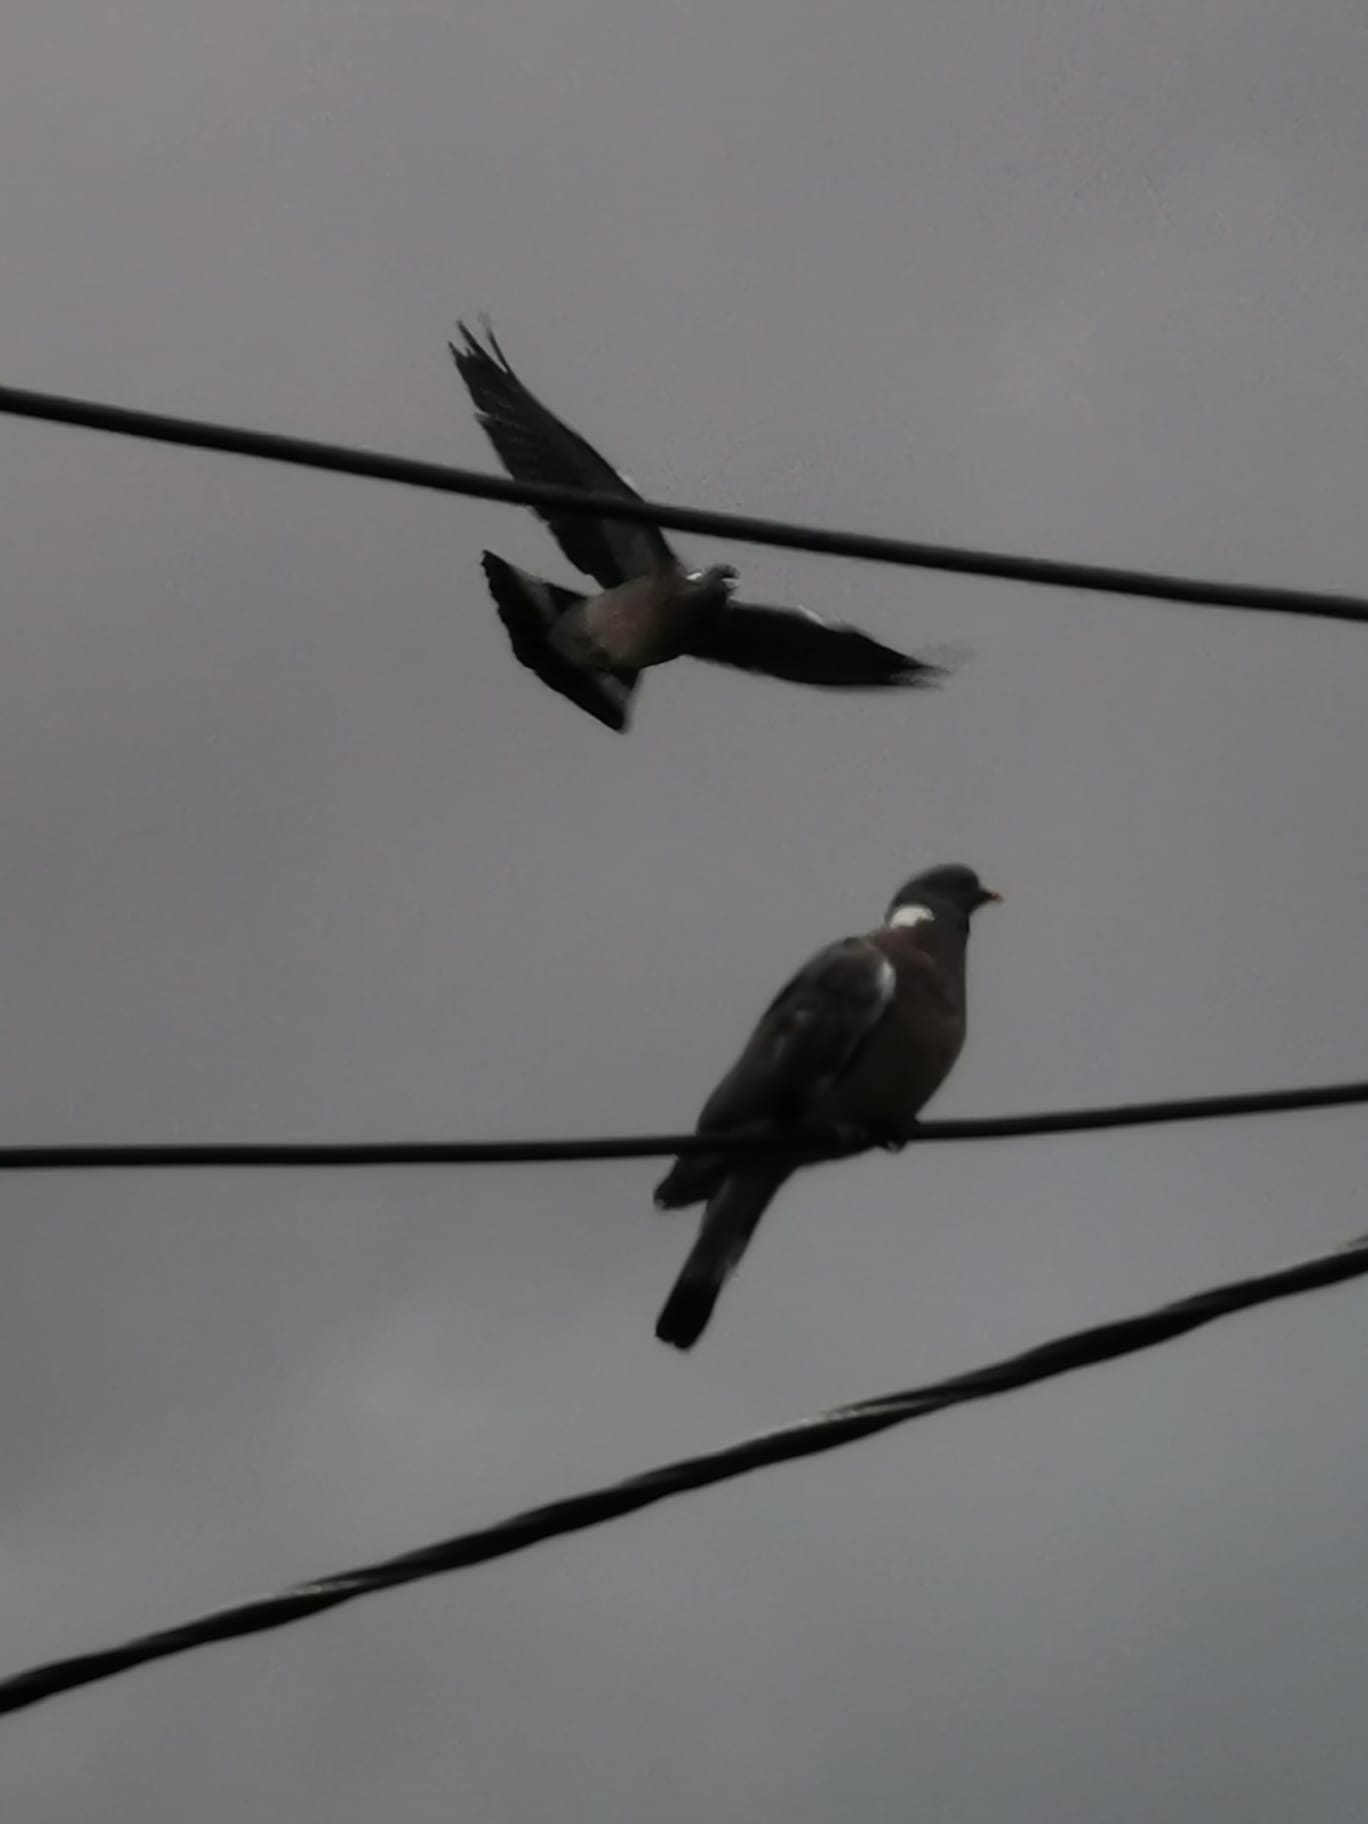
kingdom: Animalia
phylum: Chordata
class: Aves
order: Columbiformes
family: Columbidae
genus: Columba
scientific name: Columba palumbus
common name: Common wood pigeon
